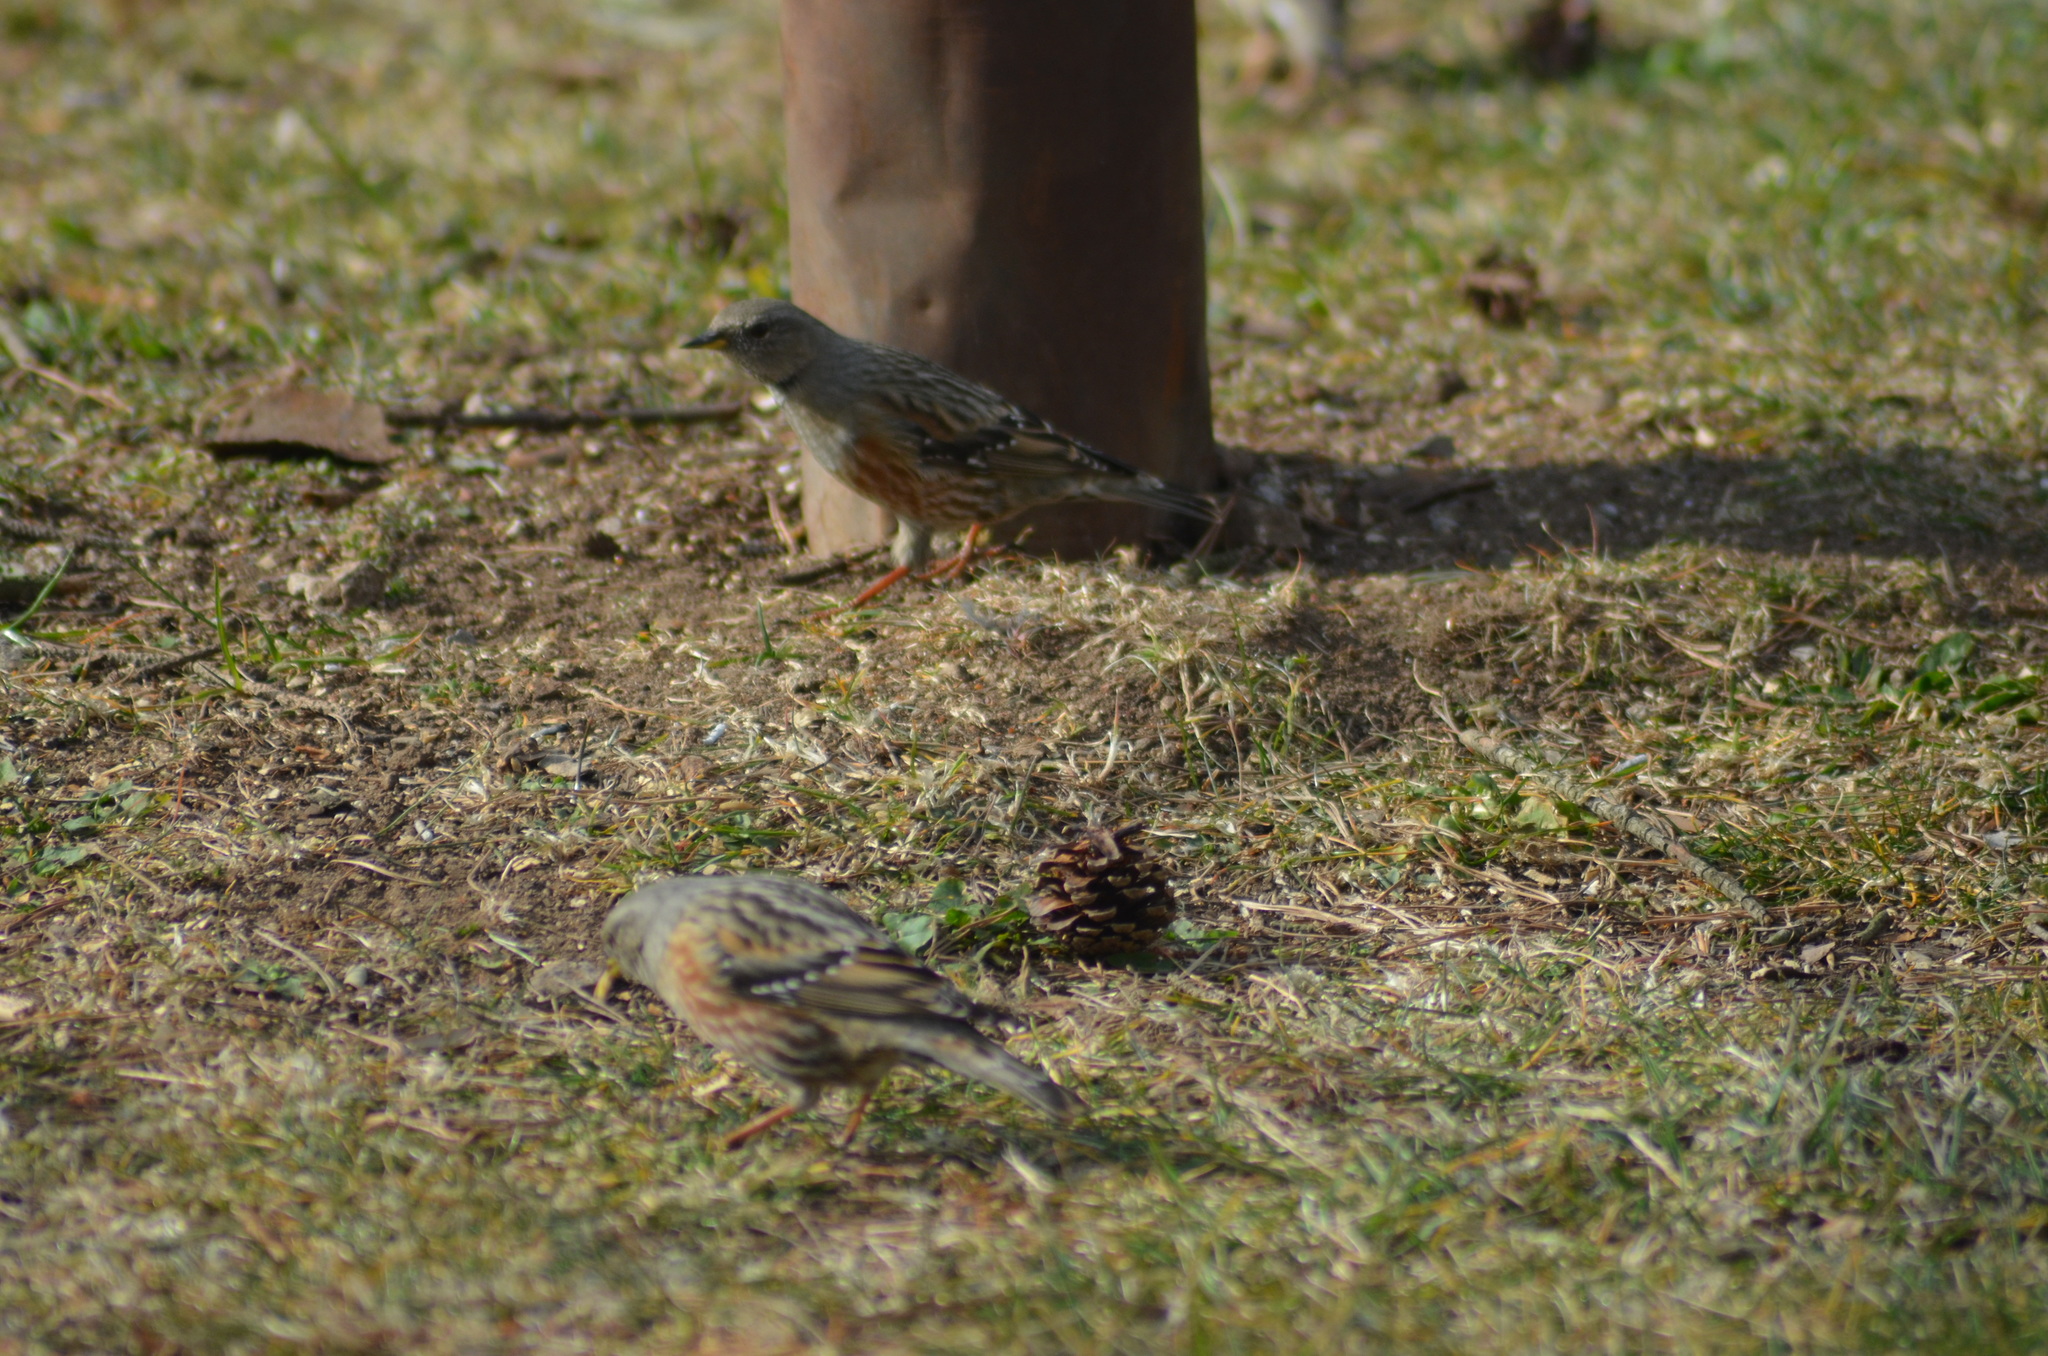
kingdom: Animalia
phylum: Chordata
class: Aves
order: Passeriformes
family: Prunellidae
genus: Prunella
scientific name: Prunella collaris
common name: Alpine accentor
